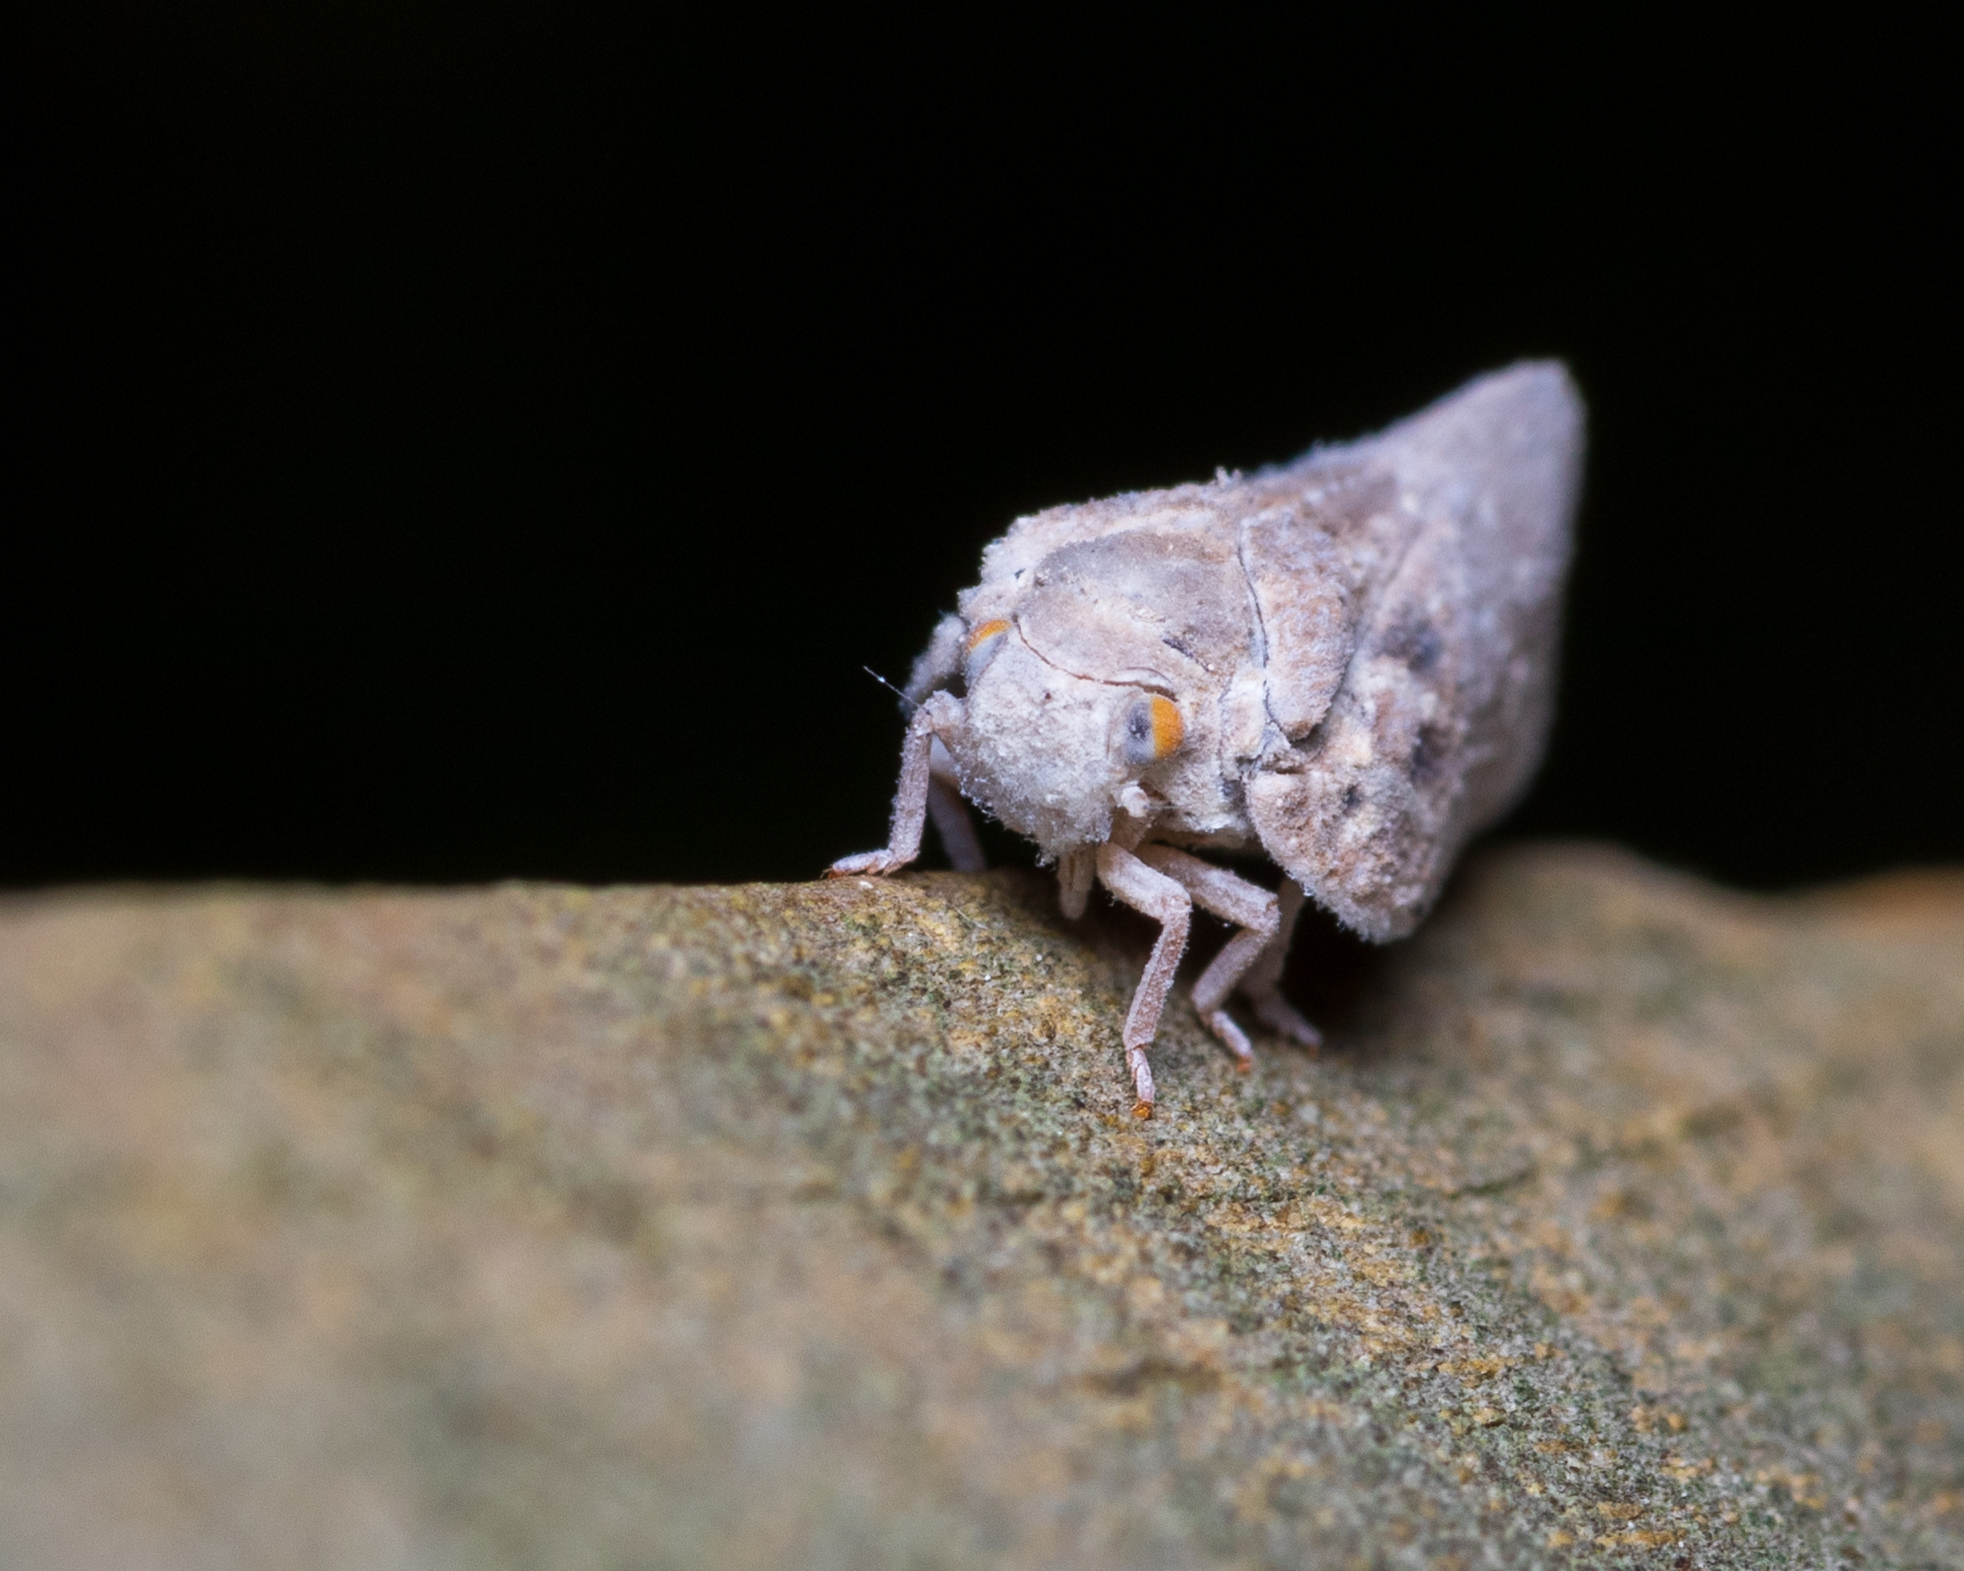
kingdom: Animalia
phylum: Arthropoda
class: Insecta
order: Hemiptera
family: Flatidae
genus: Metcalfa
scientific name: Metcalfa pruinosa
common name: Citrus flatid planthopper
